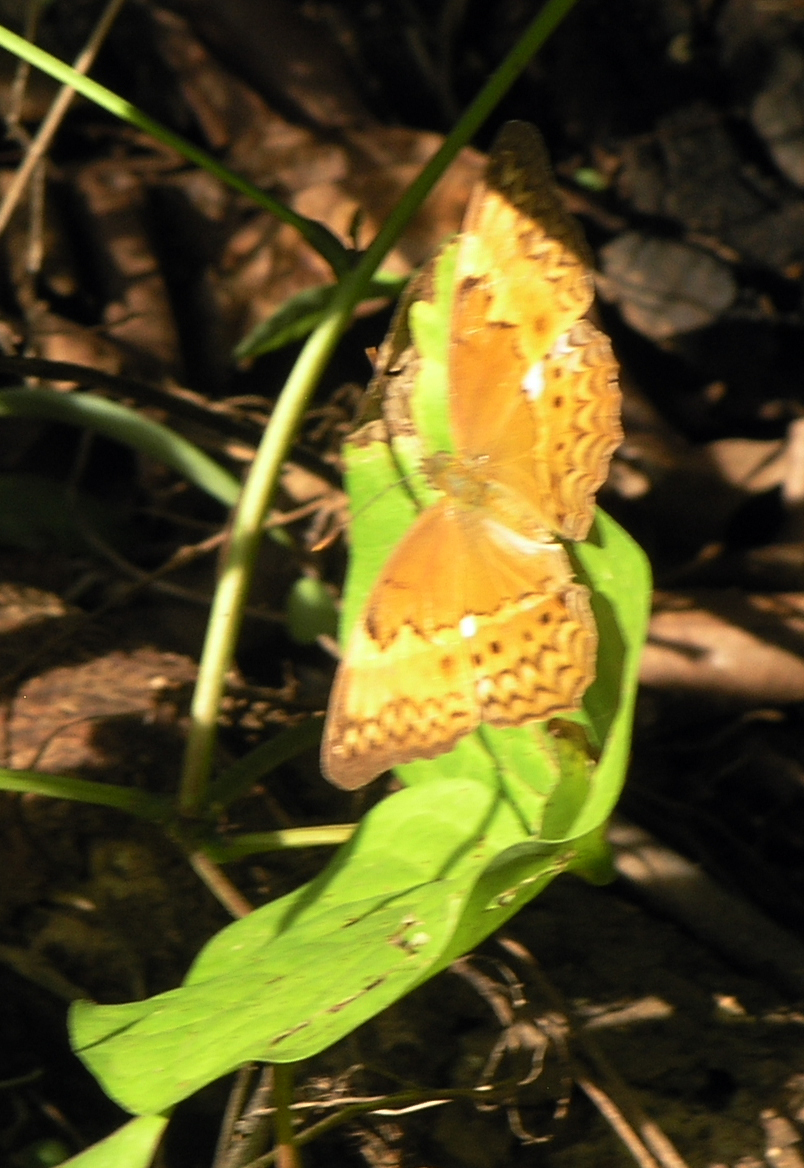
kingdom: Animalia
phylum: Arthropoda
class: Insecta
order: Lepidoptera
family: Nymphalidae
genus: Cirrochroa
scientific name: Cirrochroa tyche
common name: Common yeoman
